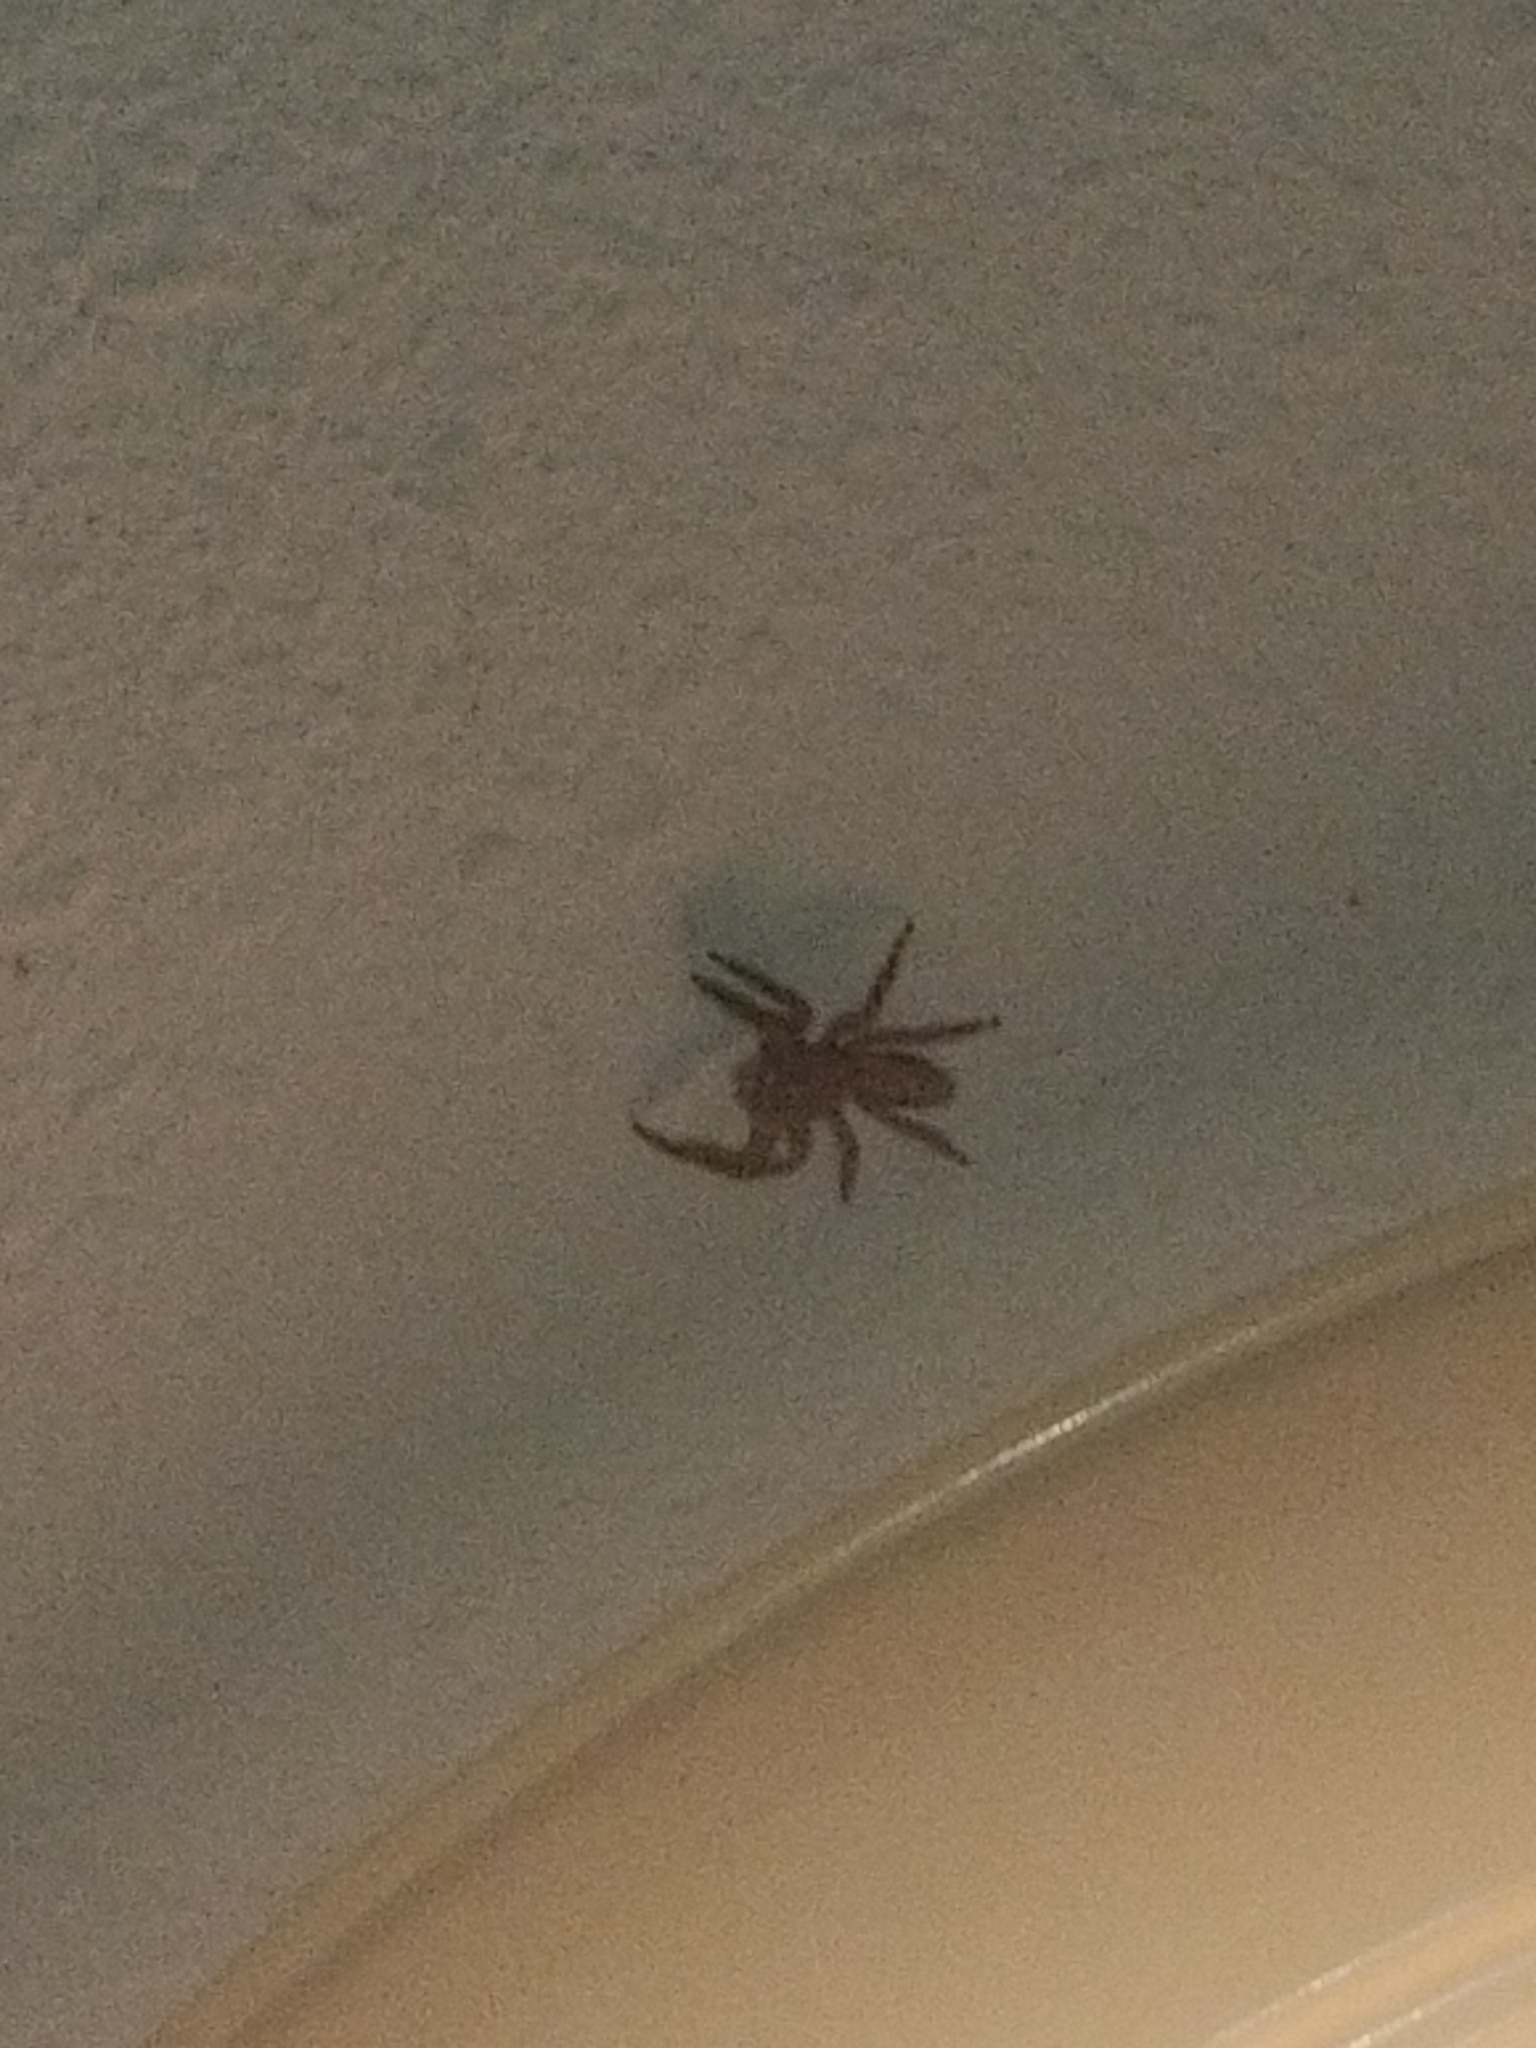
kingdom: Animalia
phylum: Arthropoda
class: Arachnida
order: Araneae
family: Salticidae
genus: Platycryptus
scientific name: Platycryptus undatus
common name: Tan jumping spider
